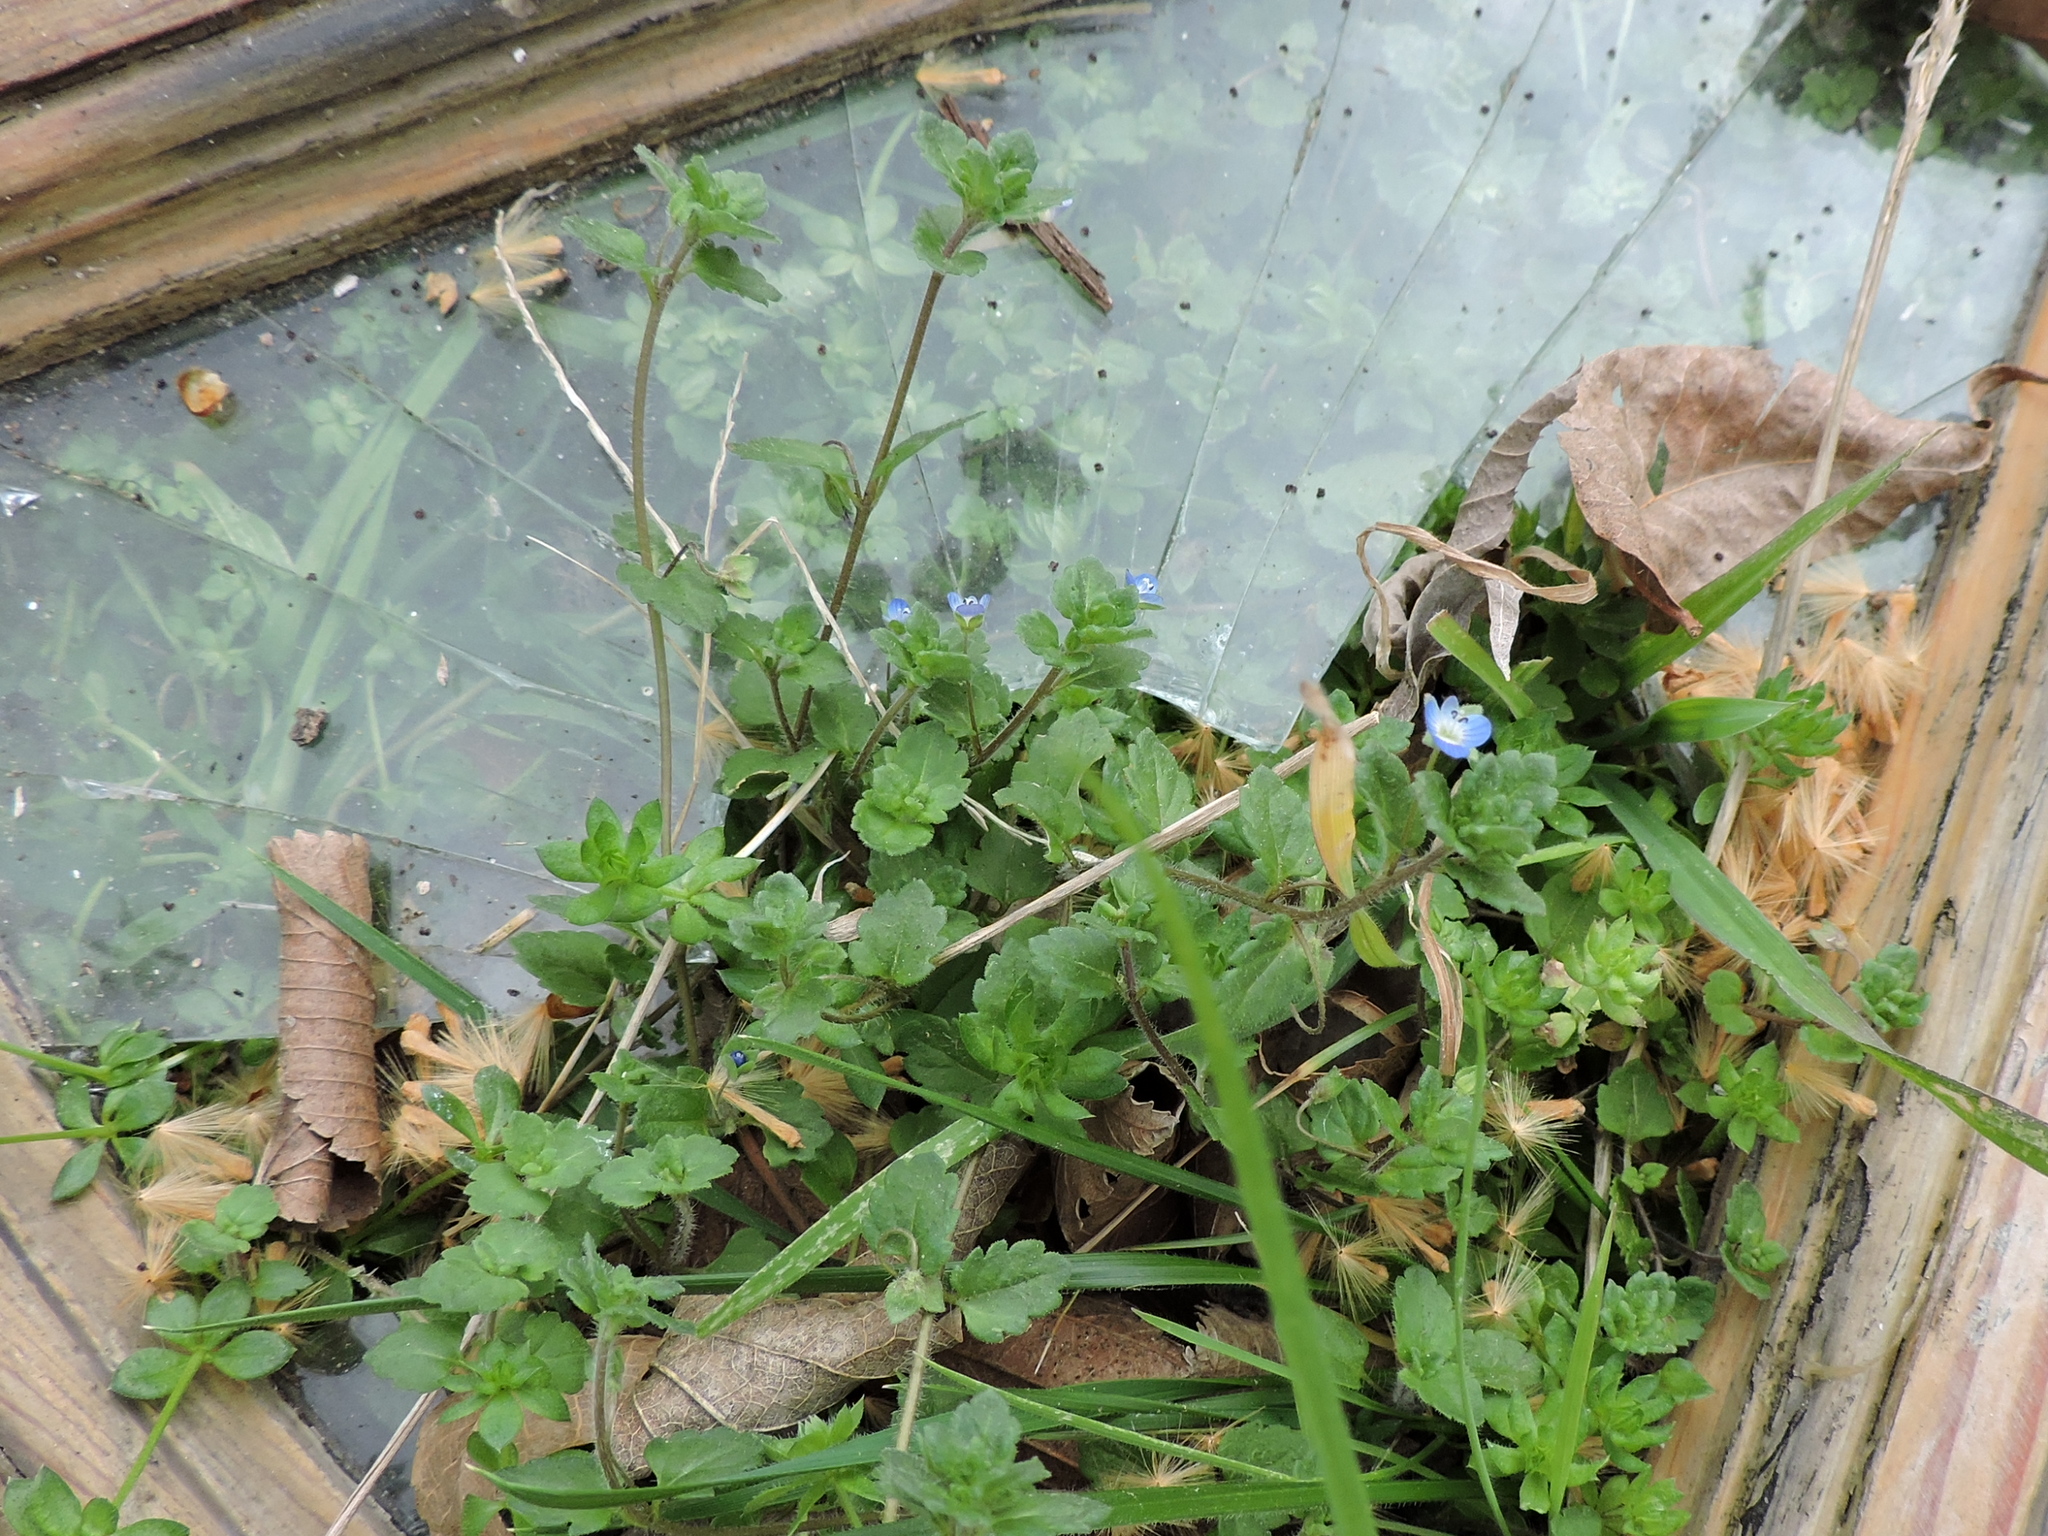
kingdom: Plantae
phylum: Tracheophyta
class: Magnoliopsida
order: Lamiales
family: Plantaginaceae
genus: Veronica
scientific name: Veronica polita
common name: Grey field-speedwell
